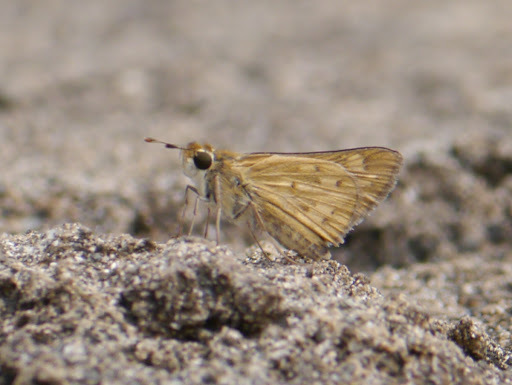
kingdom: Animalia
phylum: Arthropoda
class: Insecta
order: Lepidoptera
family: Hesperiidae
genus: Hylephila
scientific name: Hylephila phyleus
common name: Fiery skipper
